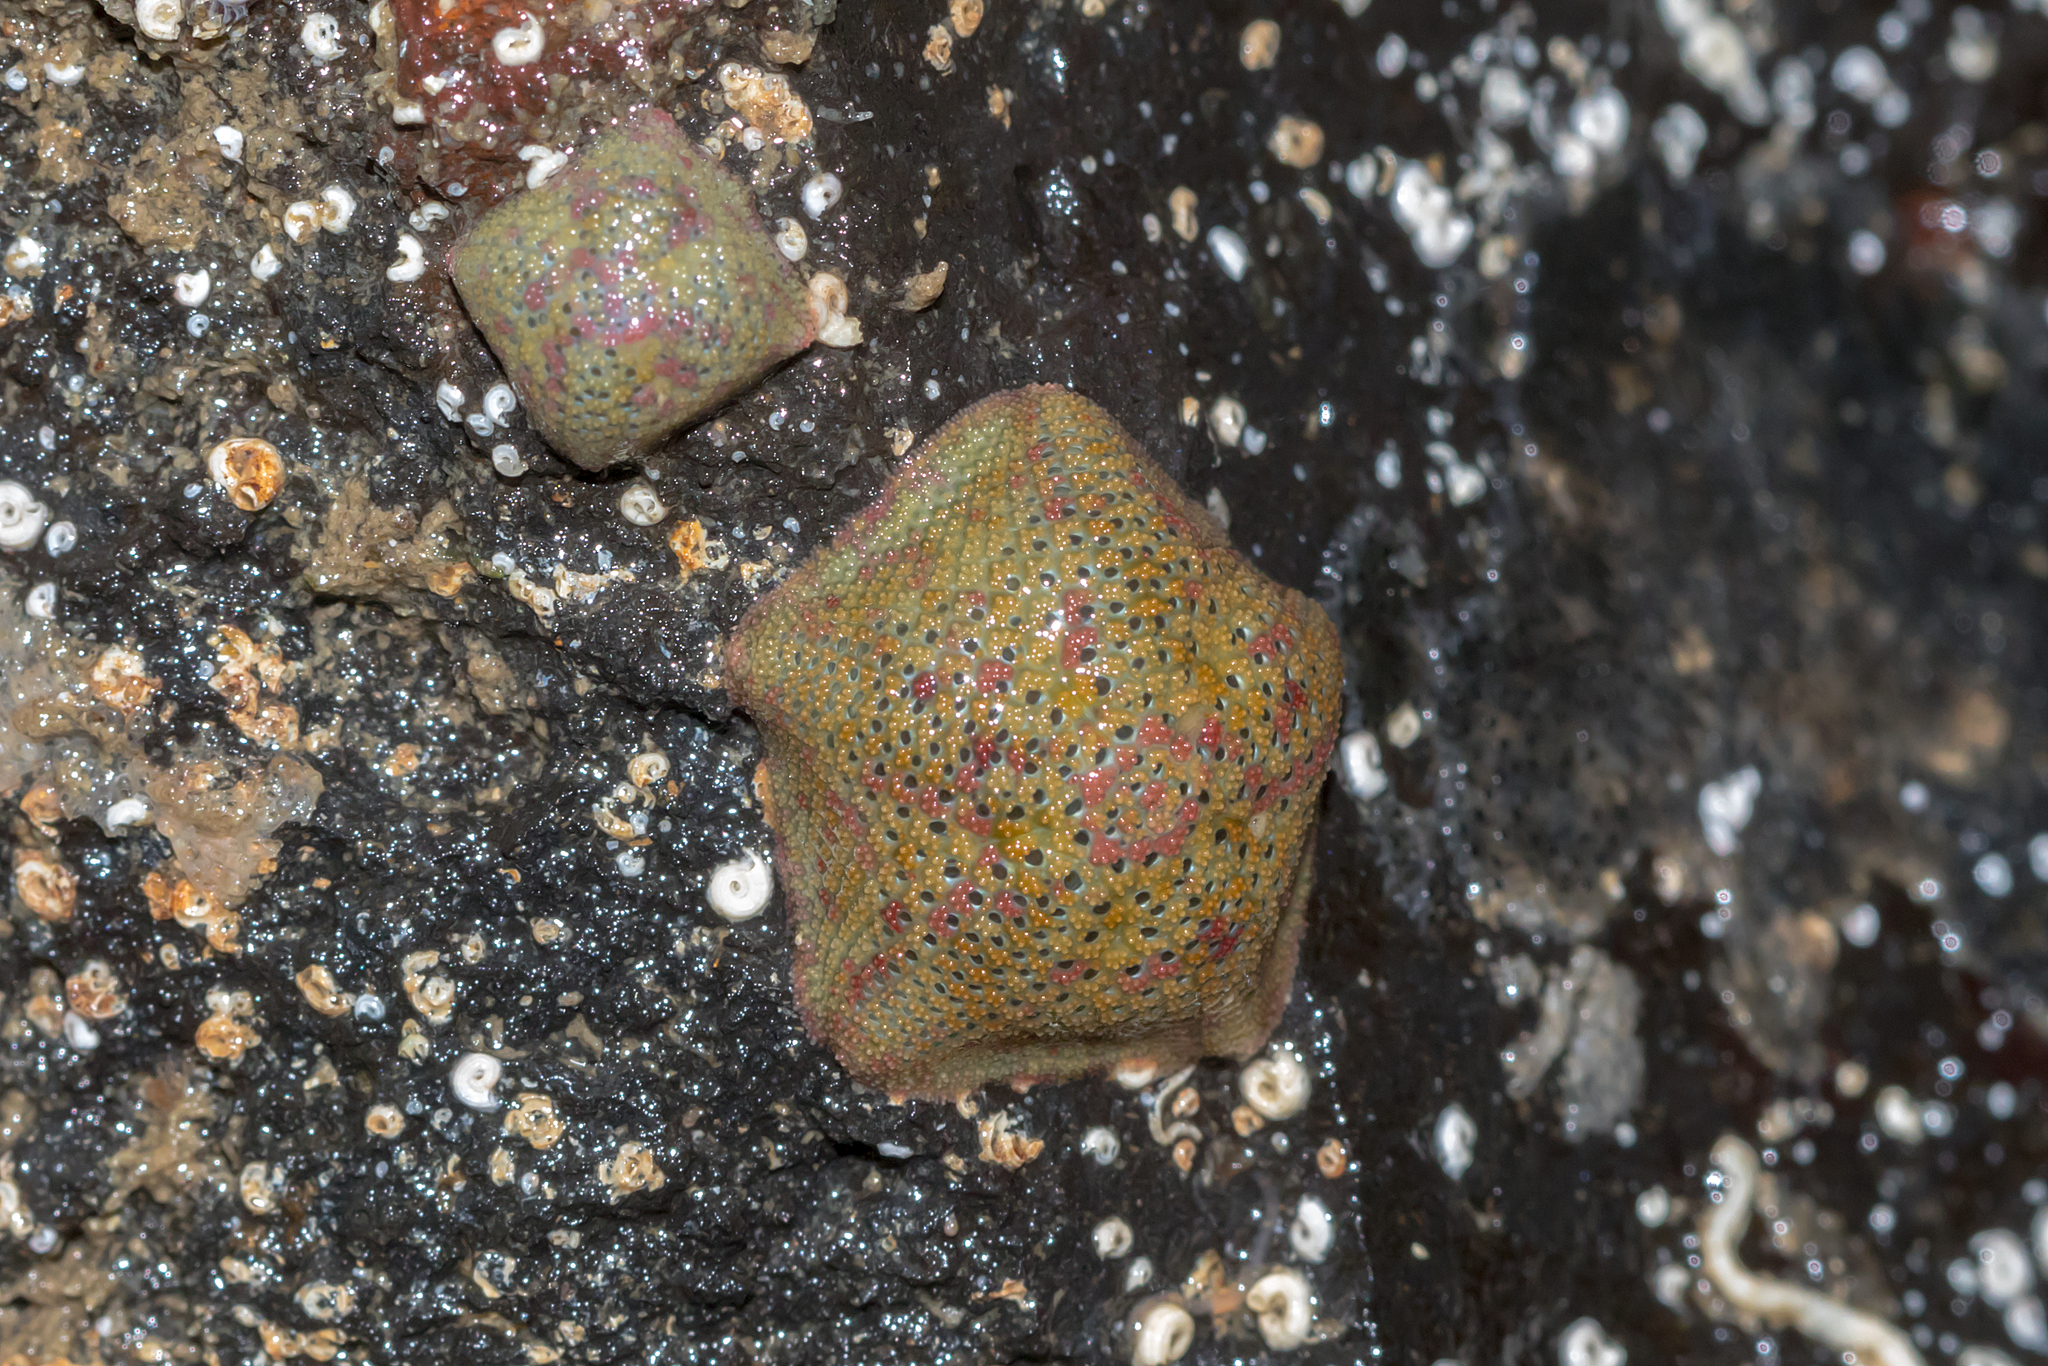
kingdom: Animalia
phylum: Echinodermata
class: Asteroidea
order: Valvatida
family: Asterinidae
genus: Parvulastra
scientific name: Parvulastra exigua
